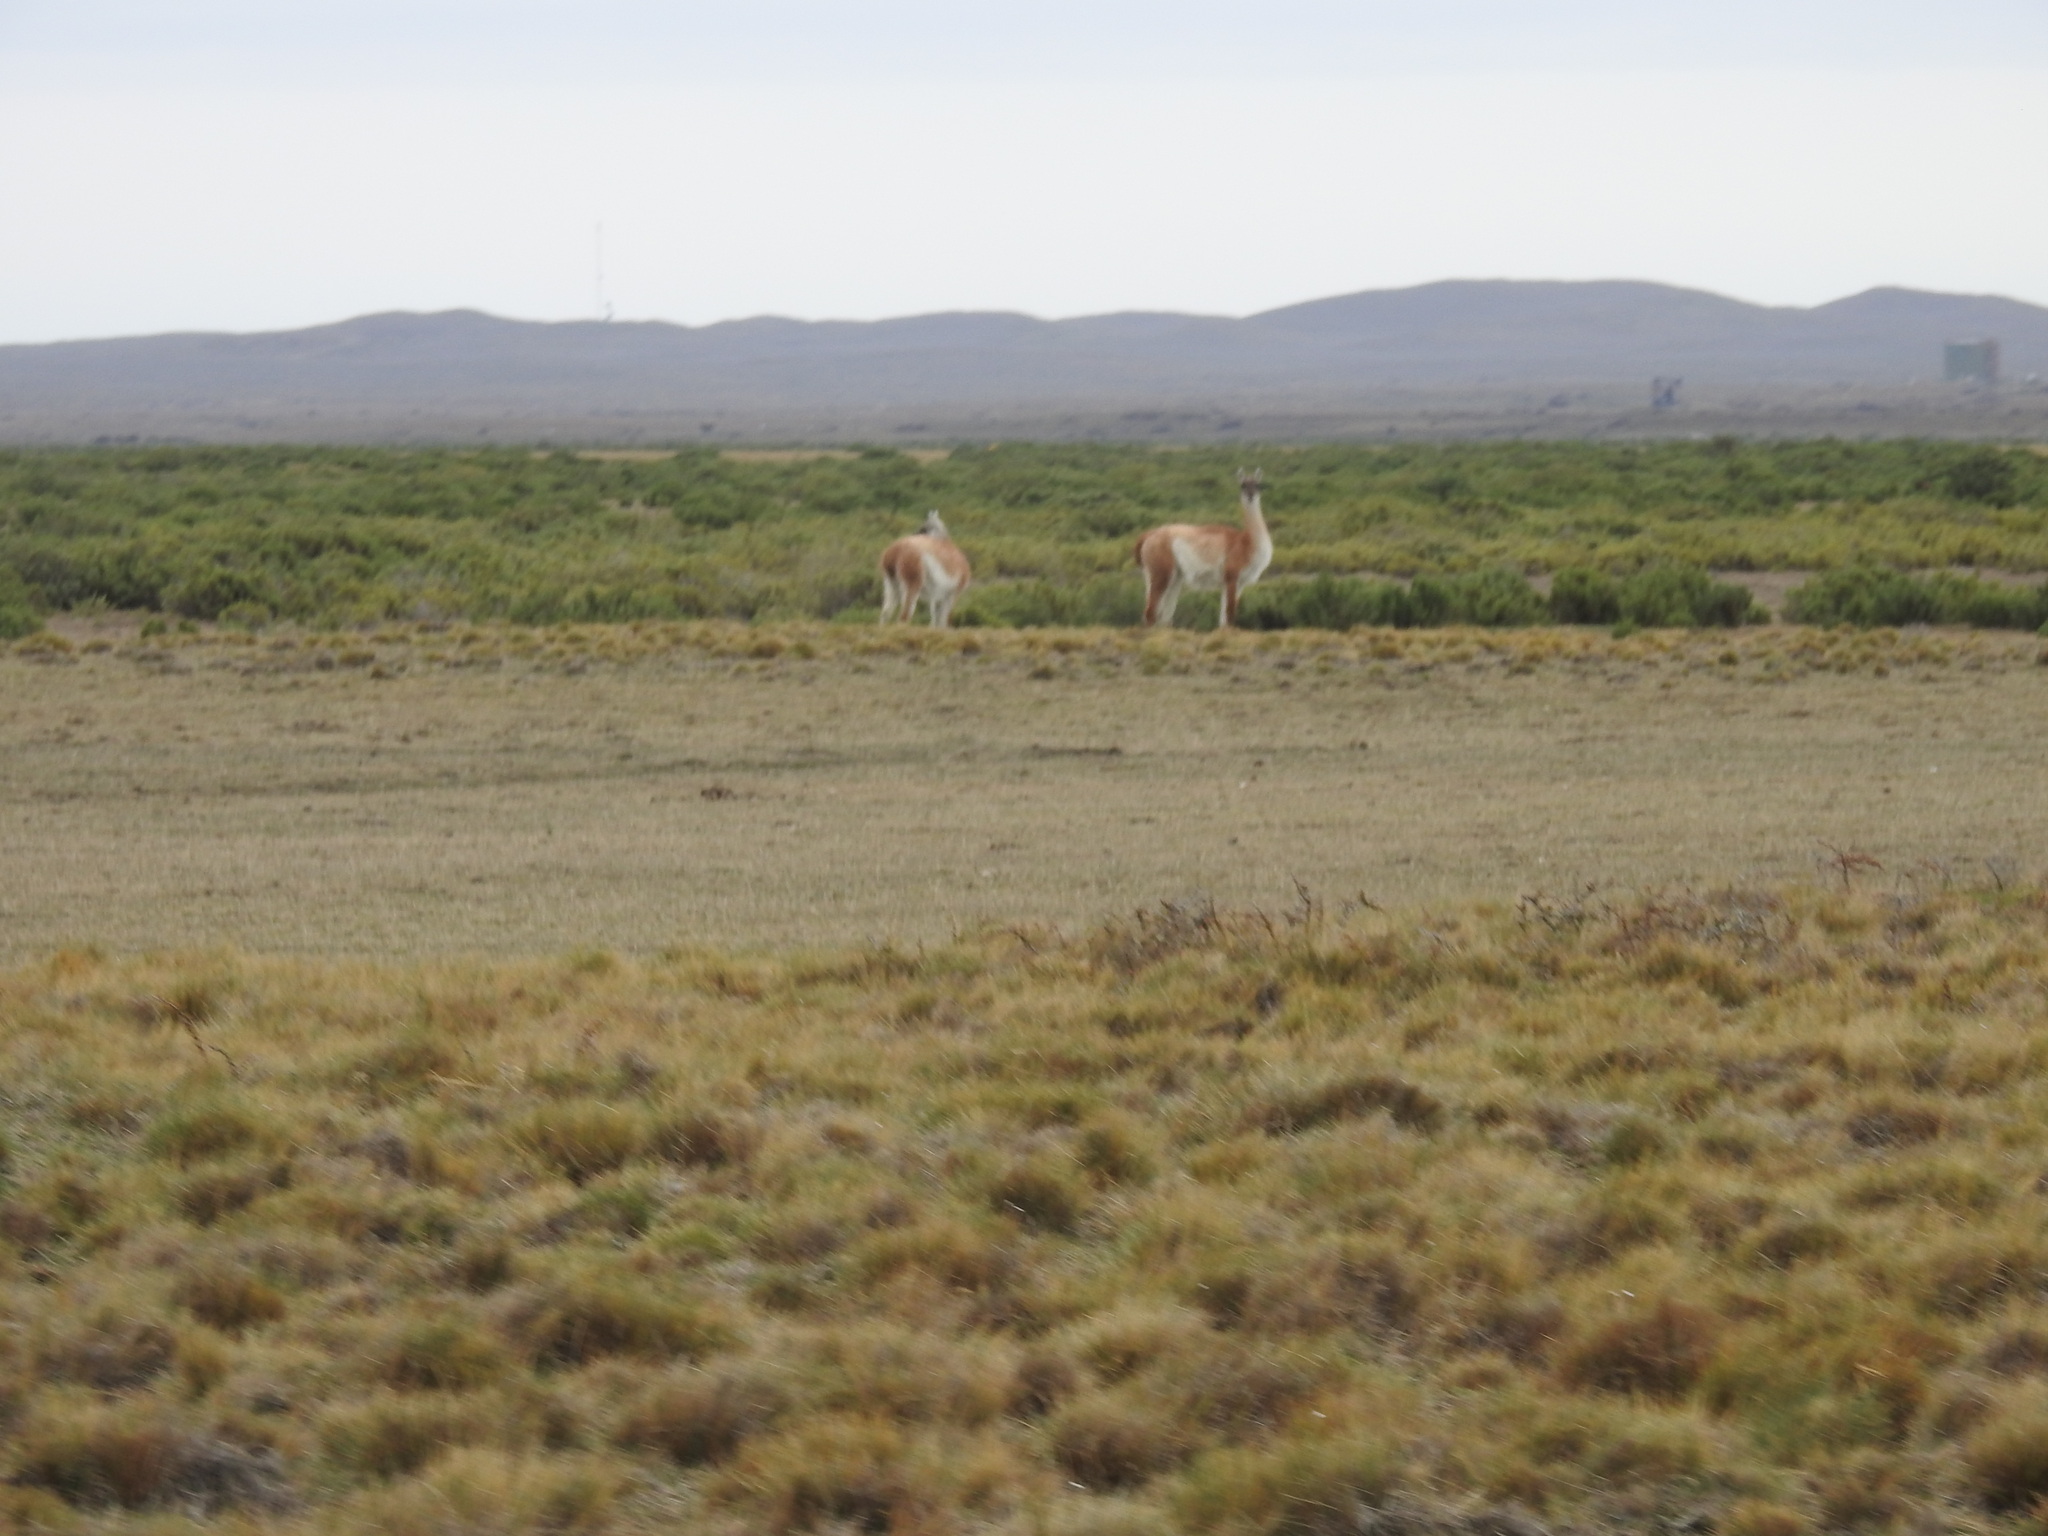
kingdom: Animalia
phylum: Chordata
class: Mammalia
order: Artiodactyla
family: Camelidae
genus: Lama
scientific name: Lama glama
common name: Llama
